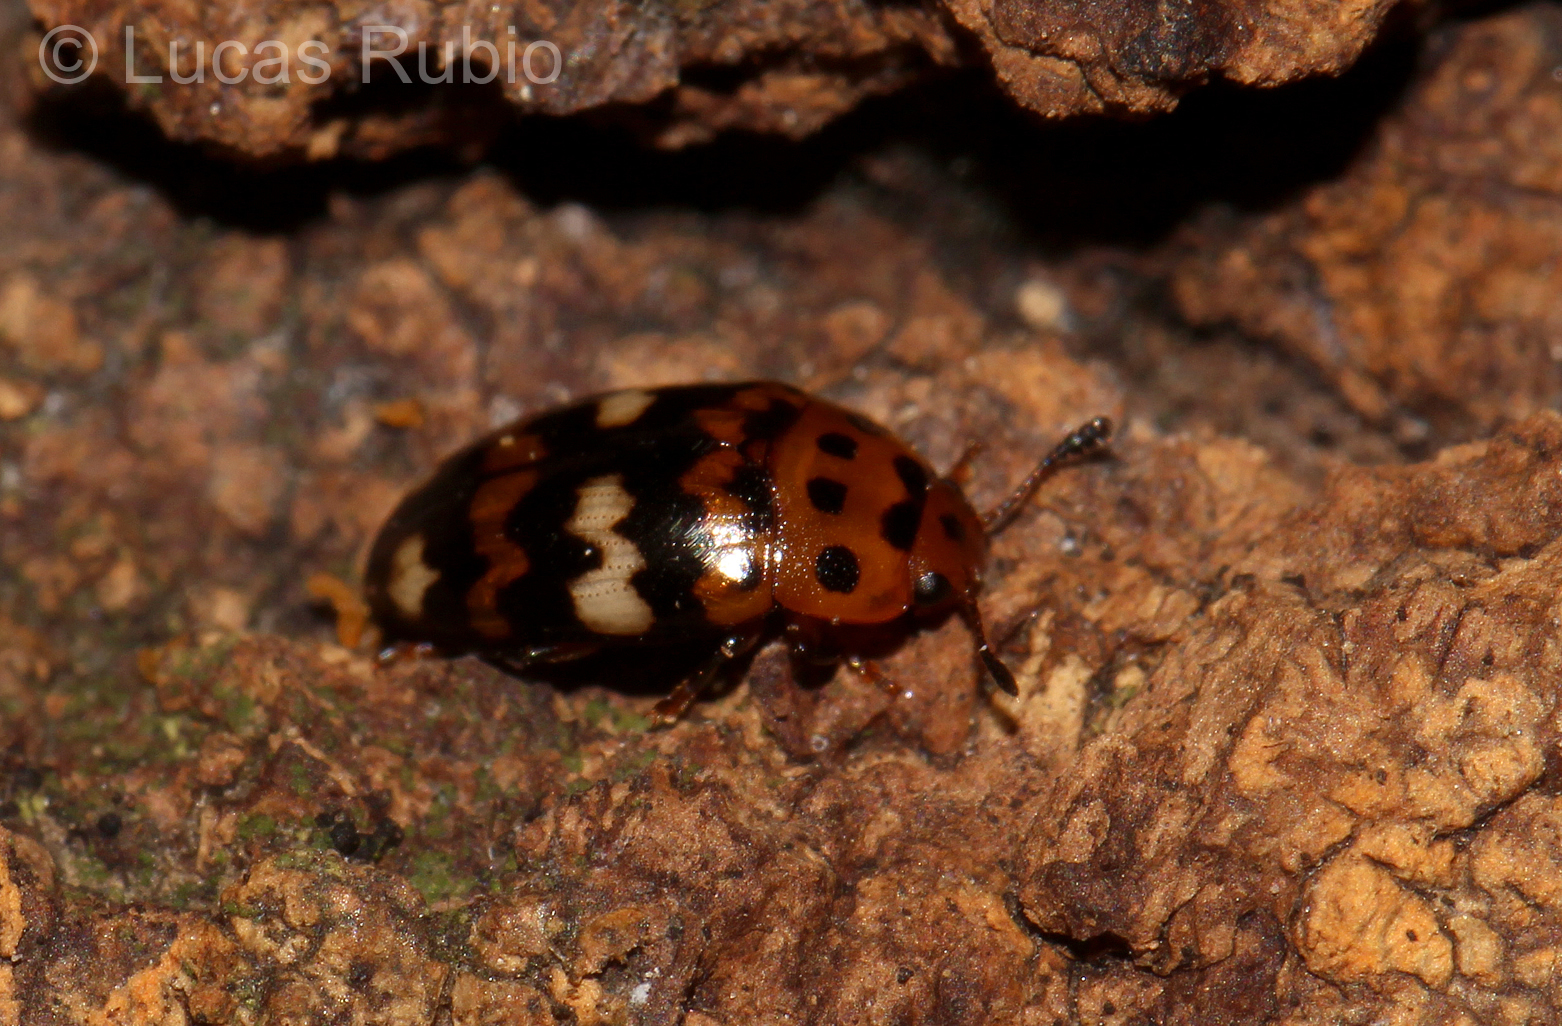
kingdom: Animalia
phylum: Arthropoda
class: Insecta
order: Coleoptera
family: Erotylidae
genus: Mycotretus
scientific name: Mycotretus trifasciatus
